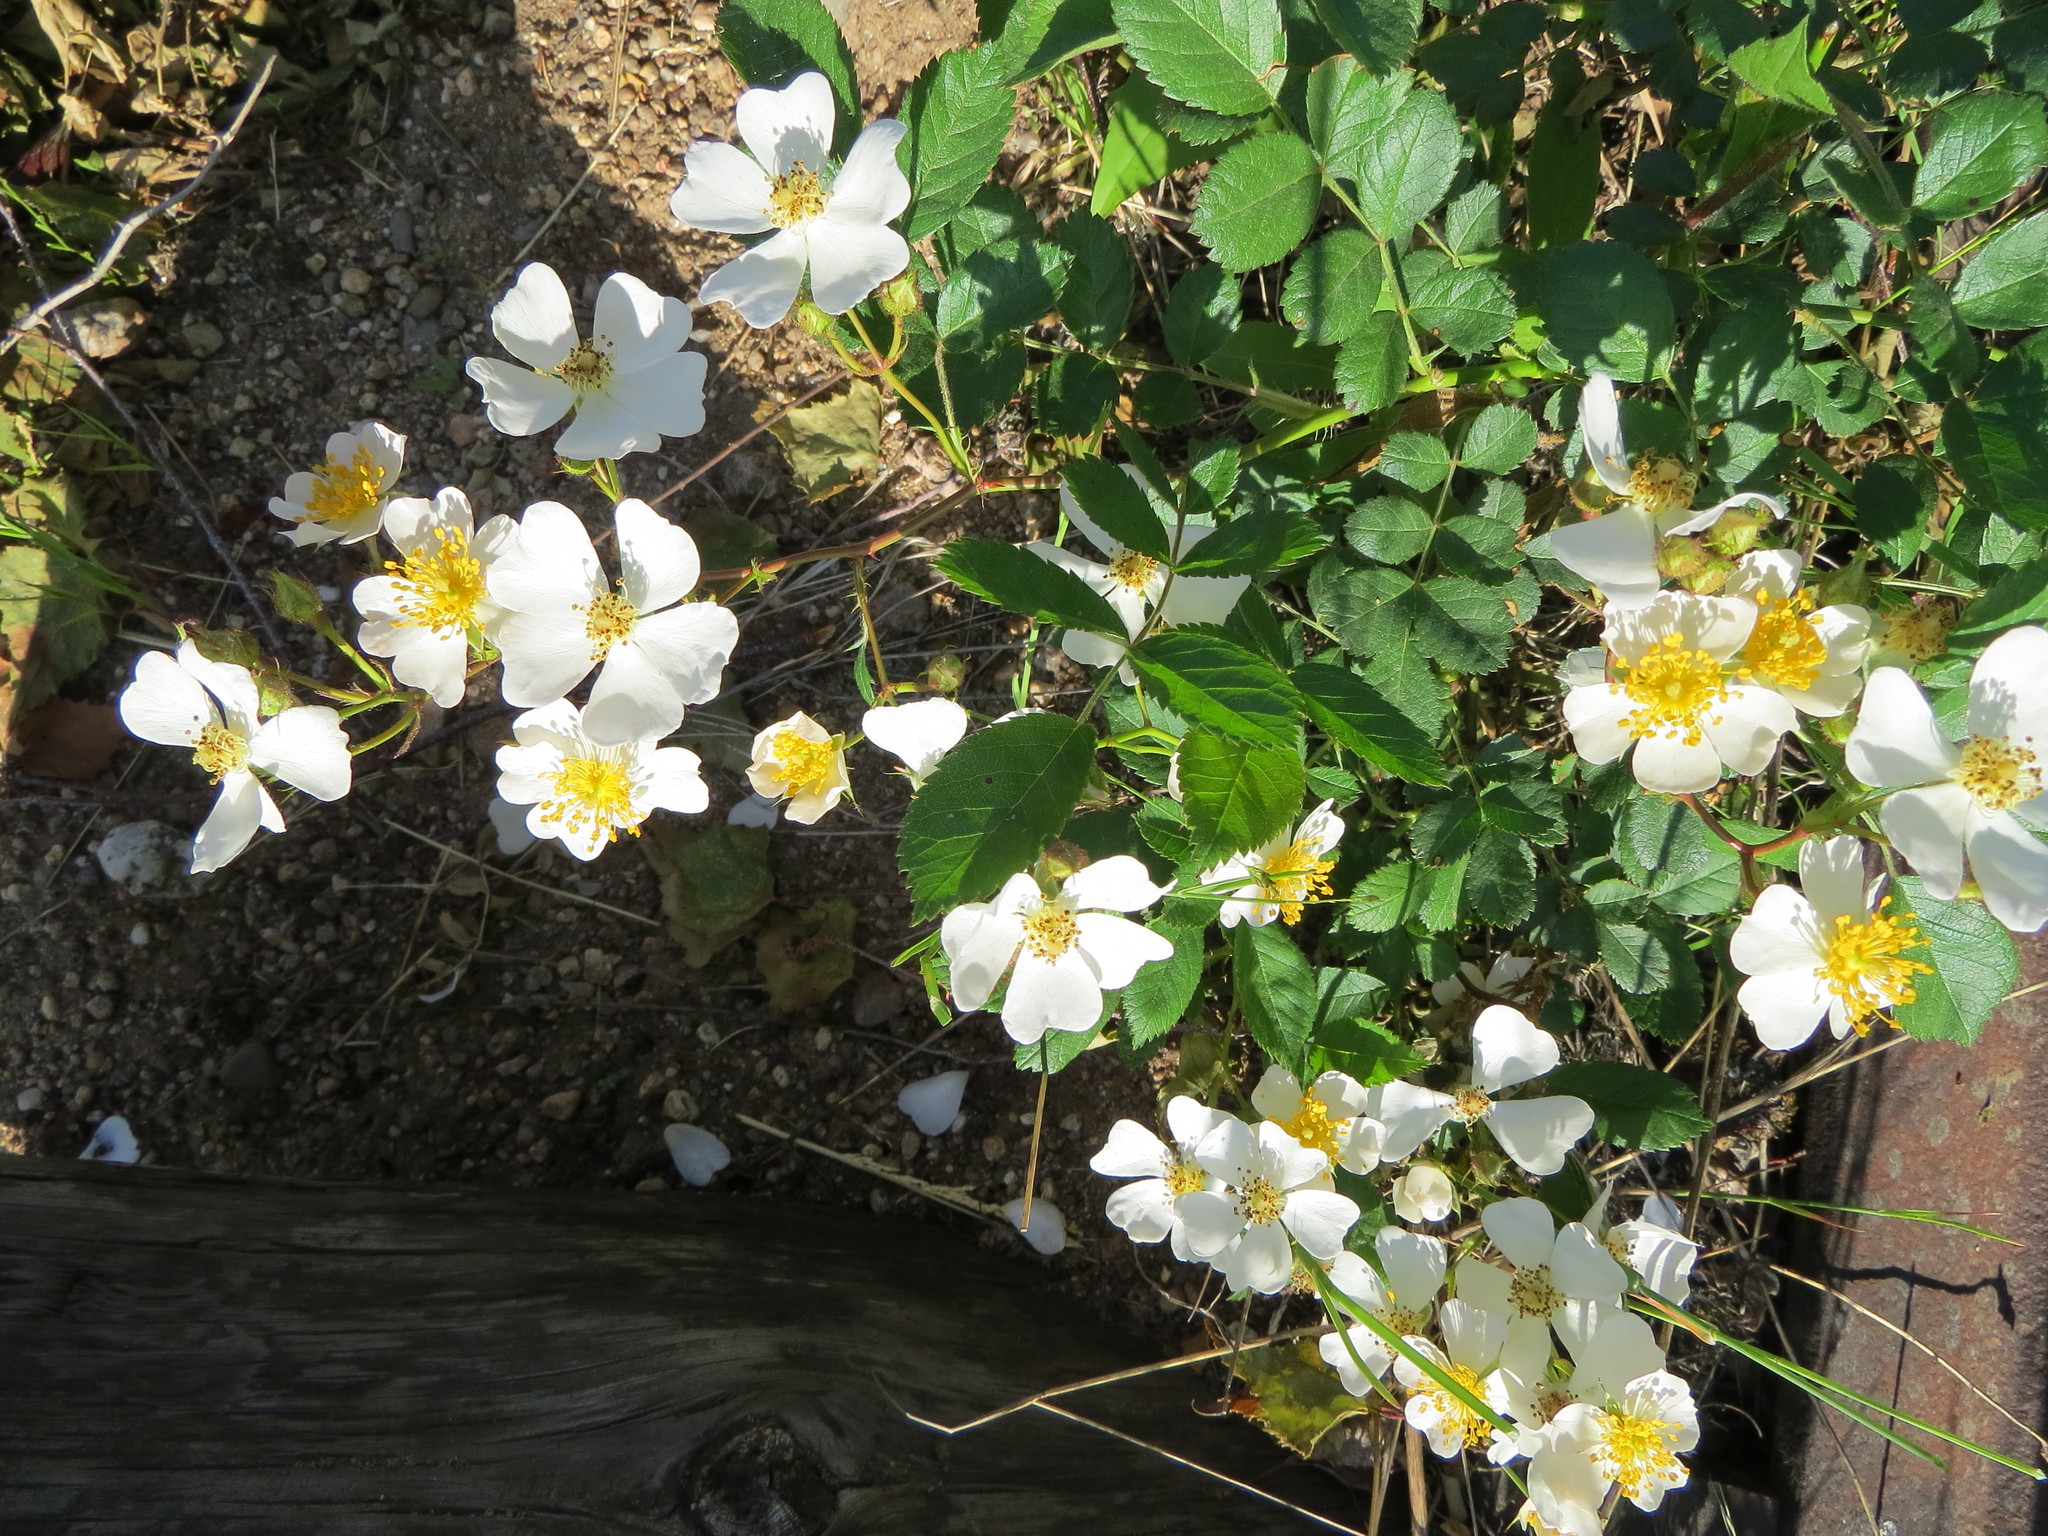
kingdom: Plantae
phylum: Tracheophyta
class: Magnoliopsida
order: Rosales
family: Rosaceae
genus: Rosa
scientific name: Rosa multiflora
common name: Multiflora rose
